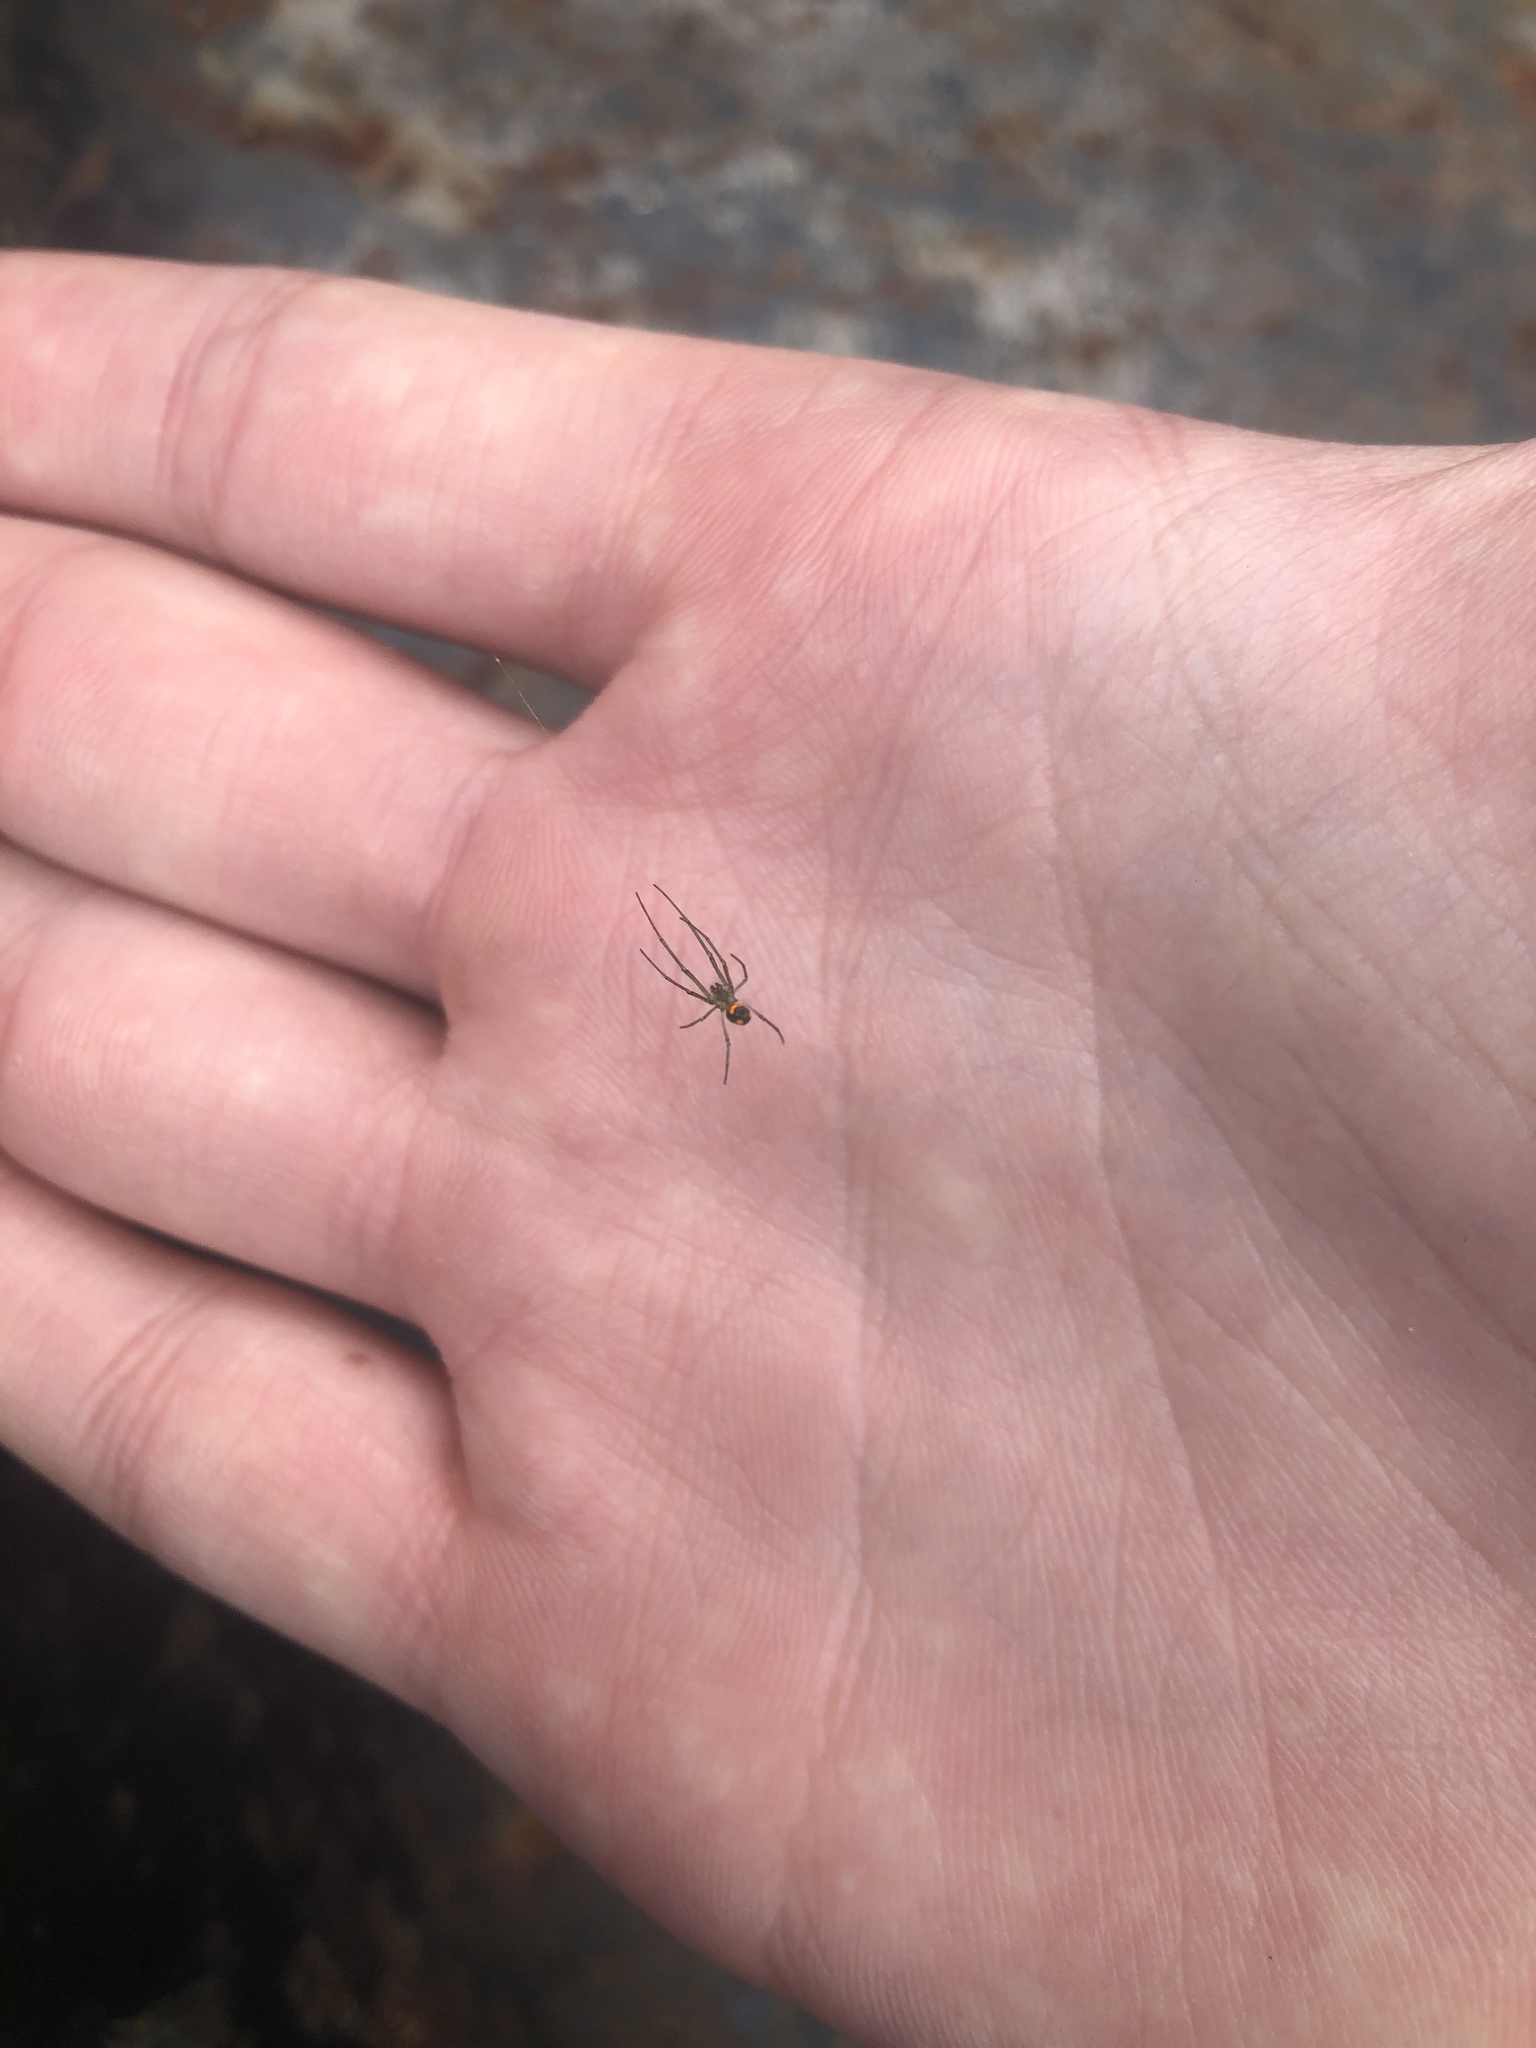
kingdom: Animalia
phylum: Arthropoda
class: Arachnida
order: Araneae
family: Tetragnathidae
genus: Leucauge
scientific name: Leucauge argyrobapta
